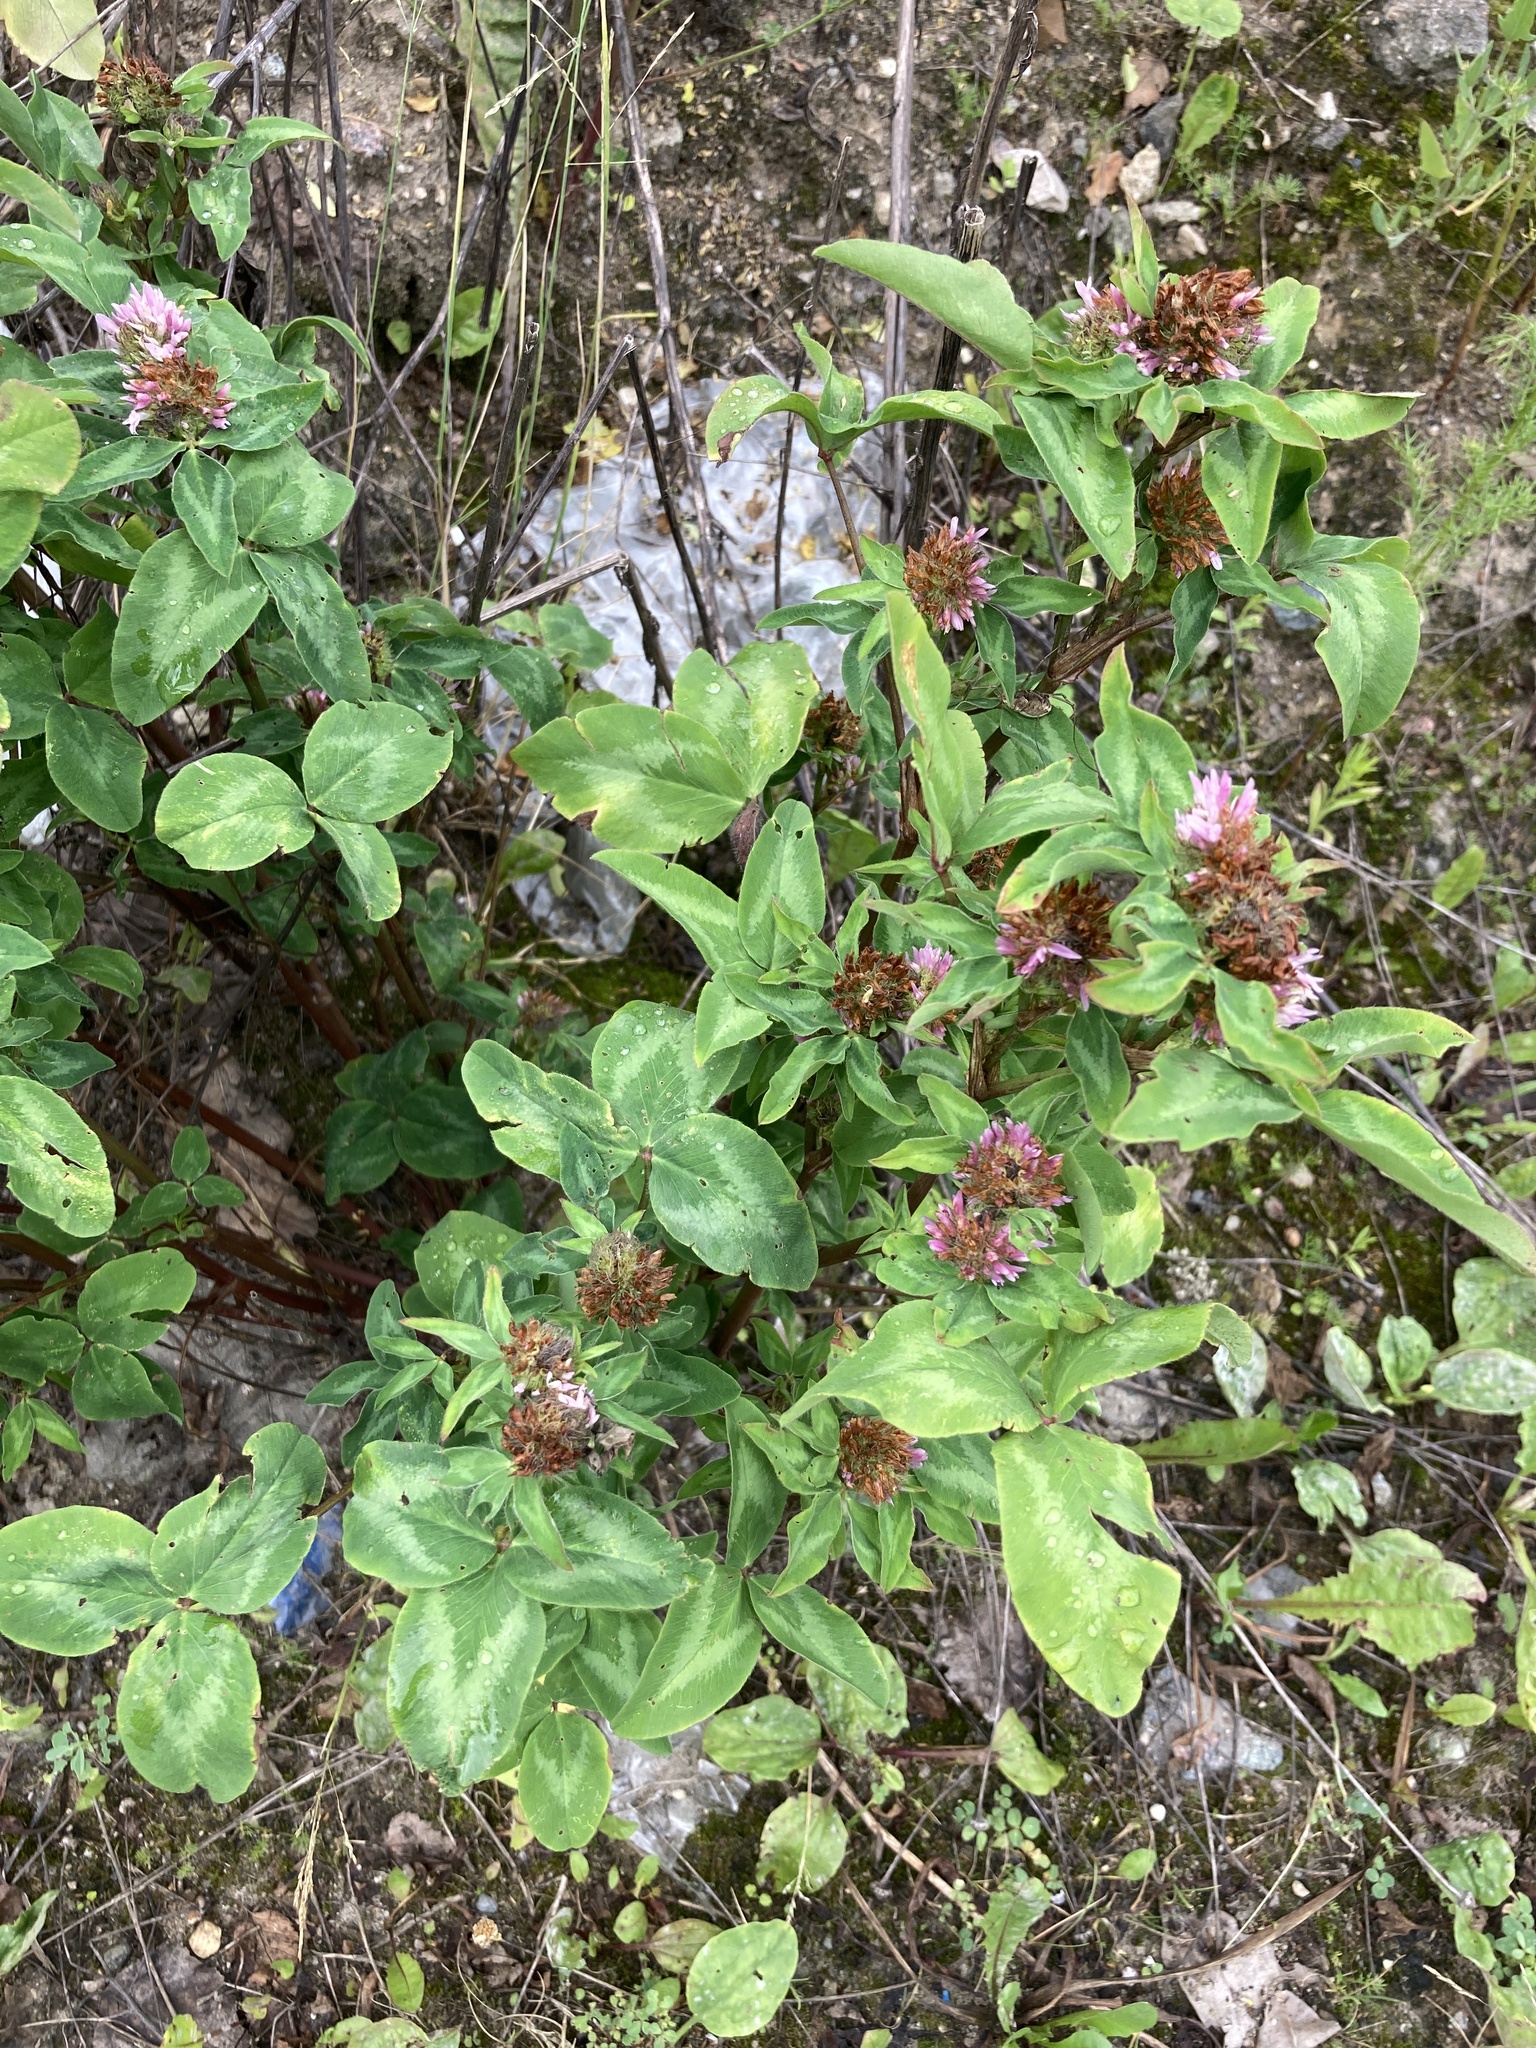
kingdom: Plantae
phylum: Tracheophyta
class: Magnoliopsida
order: Fabales
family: Fabaceae
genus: Trifolium
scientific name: Trifolium pratense
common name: Red clover
